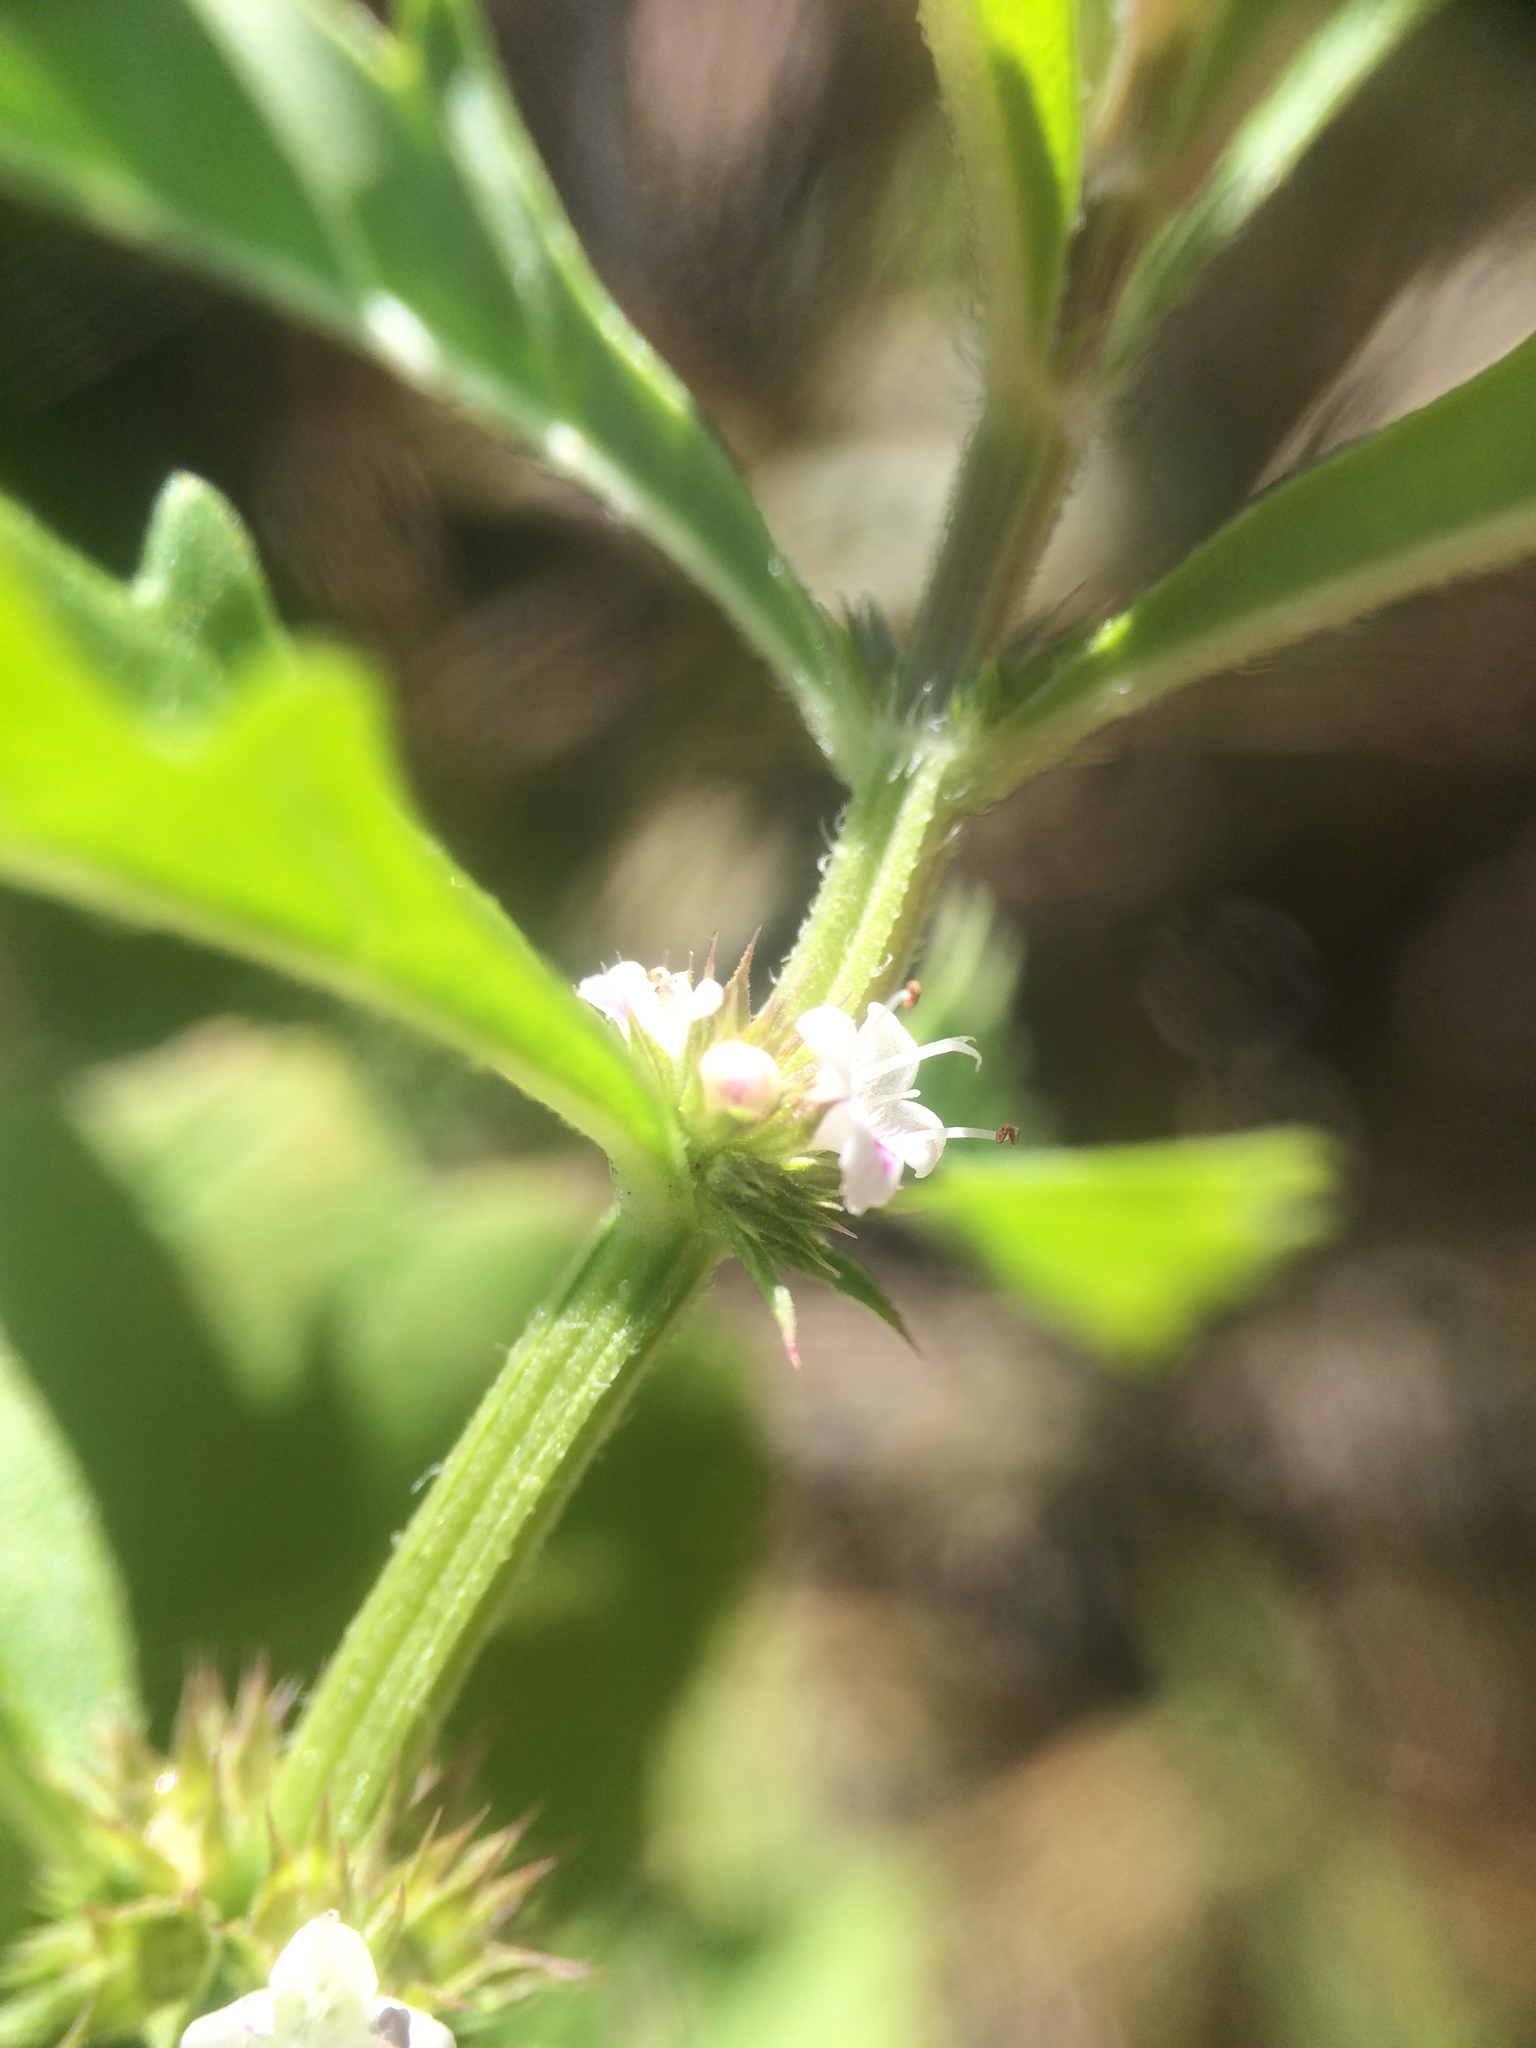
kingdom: Plantae
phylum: Tracheophyta
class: Magnoliopsida
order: Lamiales
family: Lamiaceae
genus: Lycopus
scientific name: Lycopus americanus
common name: American bugleweed
